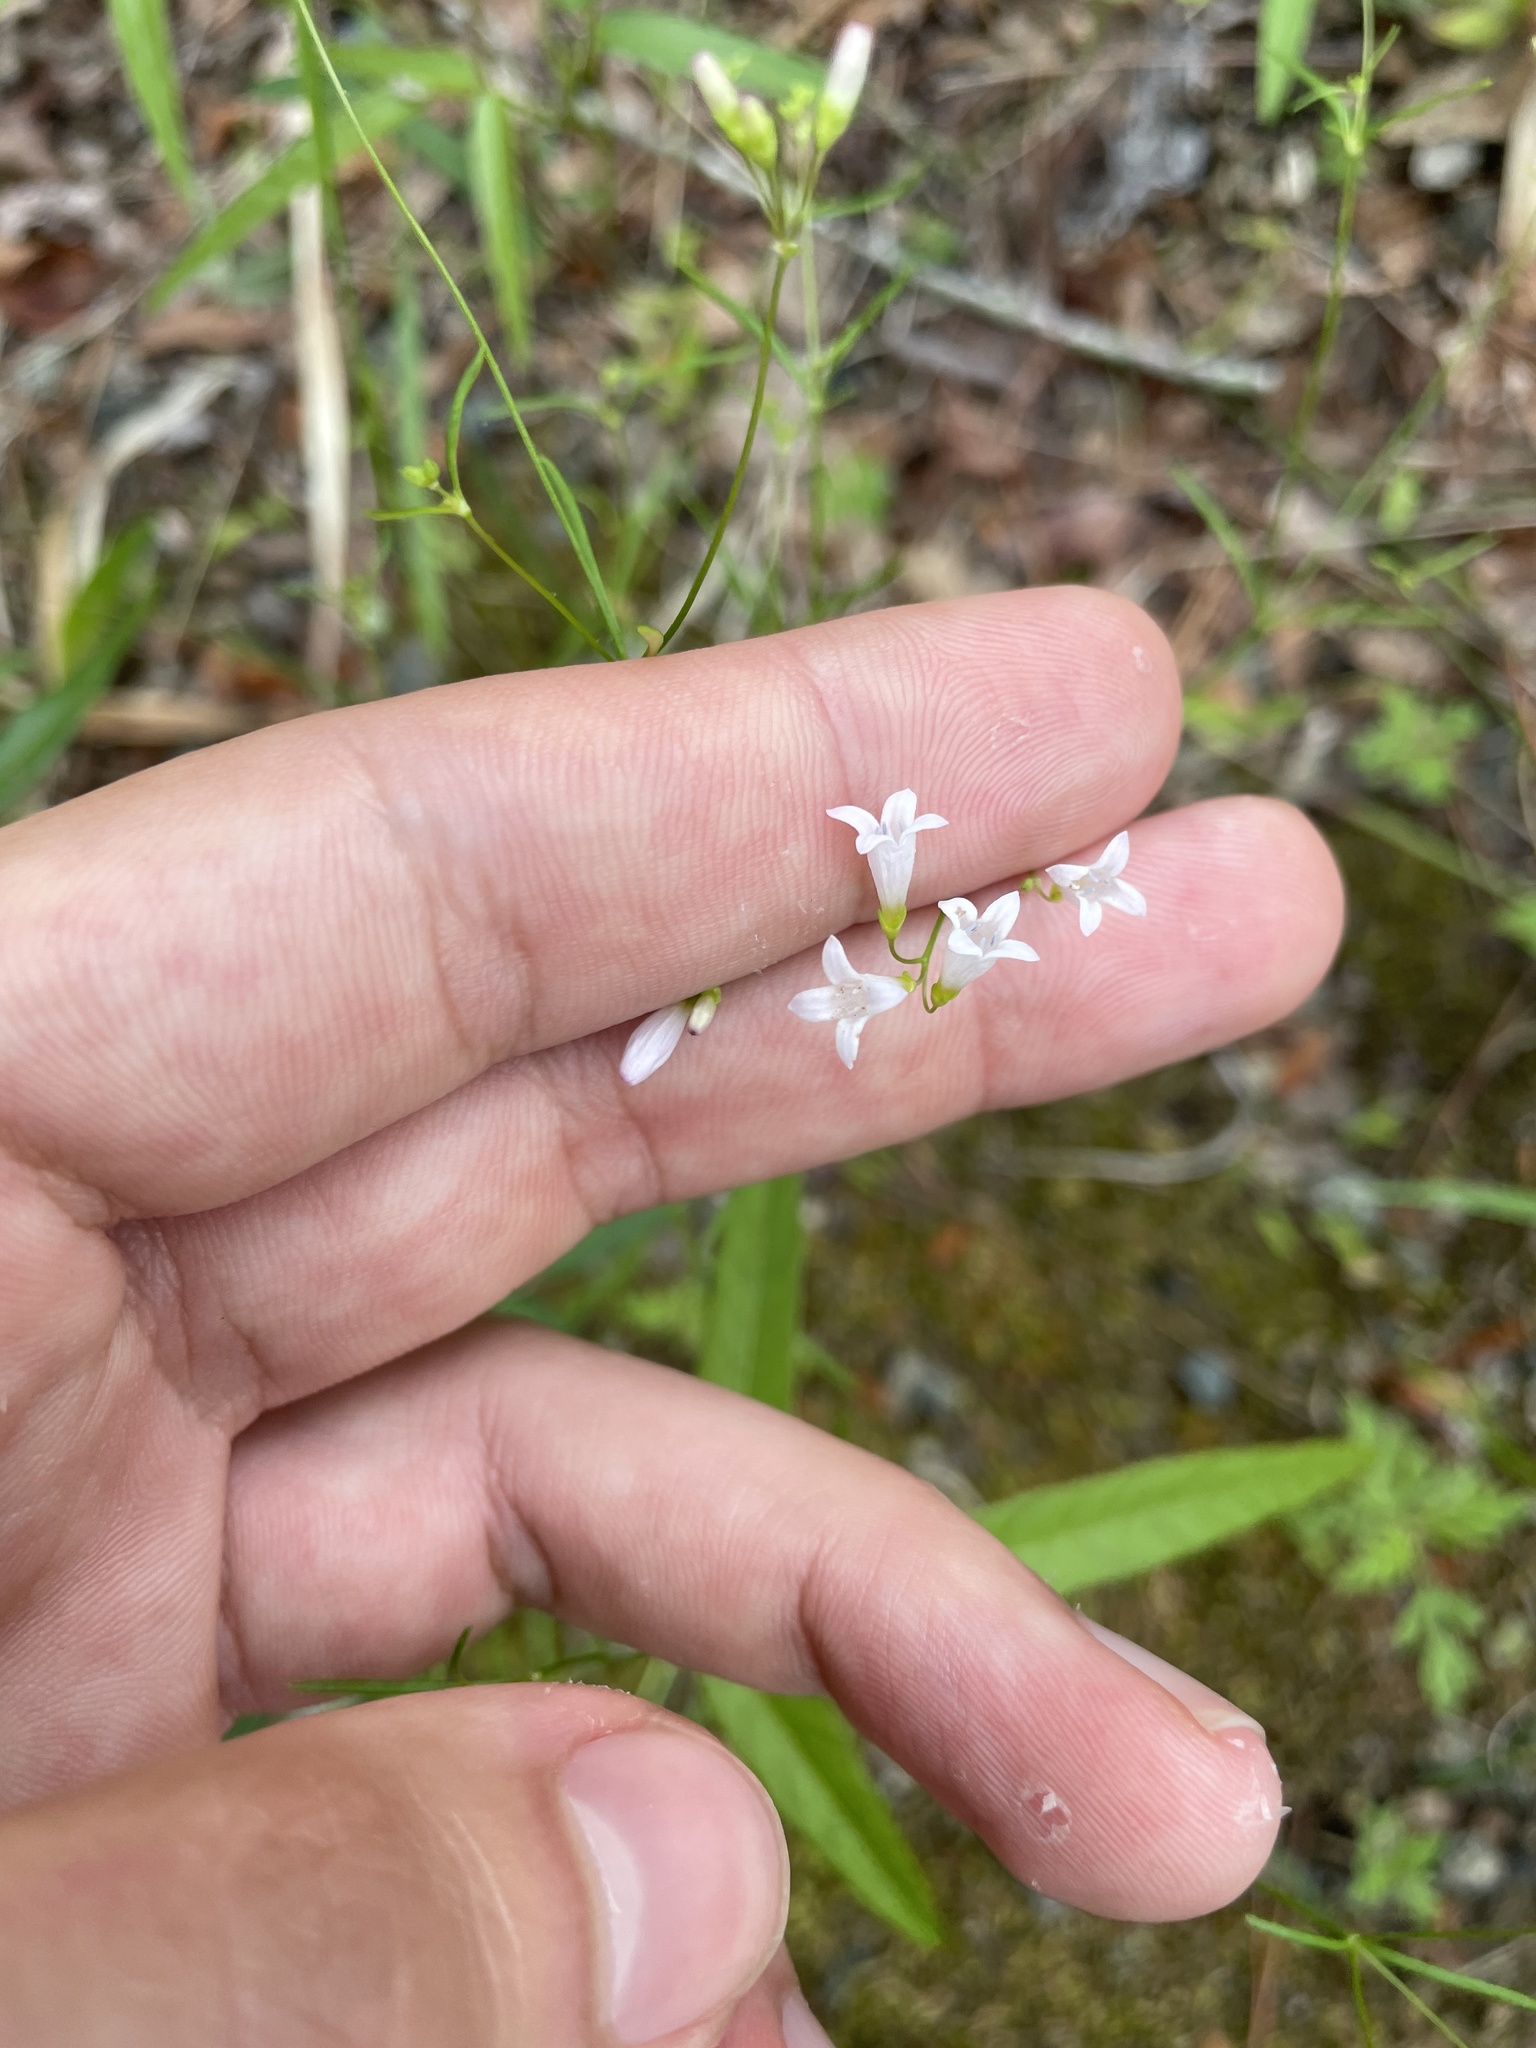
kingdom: Plantae
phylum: Tracheophyta
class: Magnoliopsida
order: Gentianales
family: Rubiaceae
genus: Houstonia
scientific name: Houstonia longifolia
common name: Long-leaved bluets
